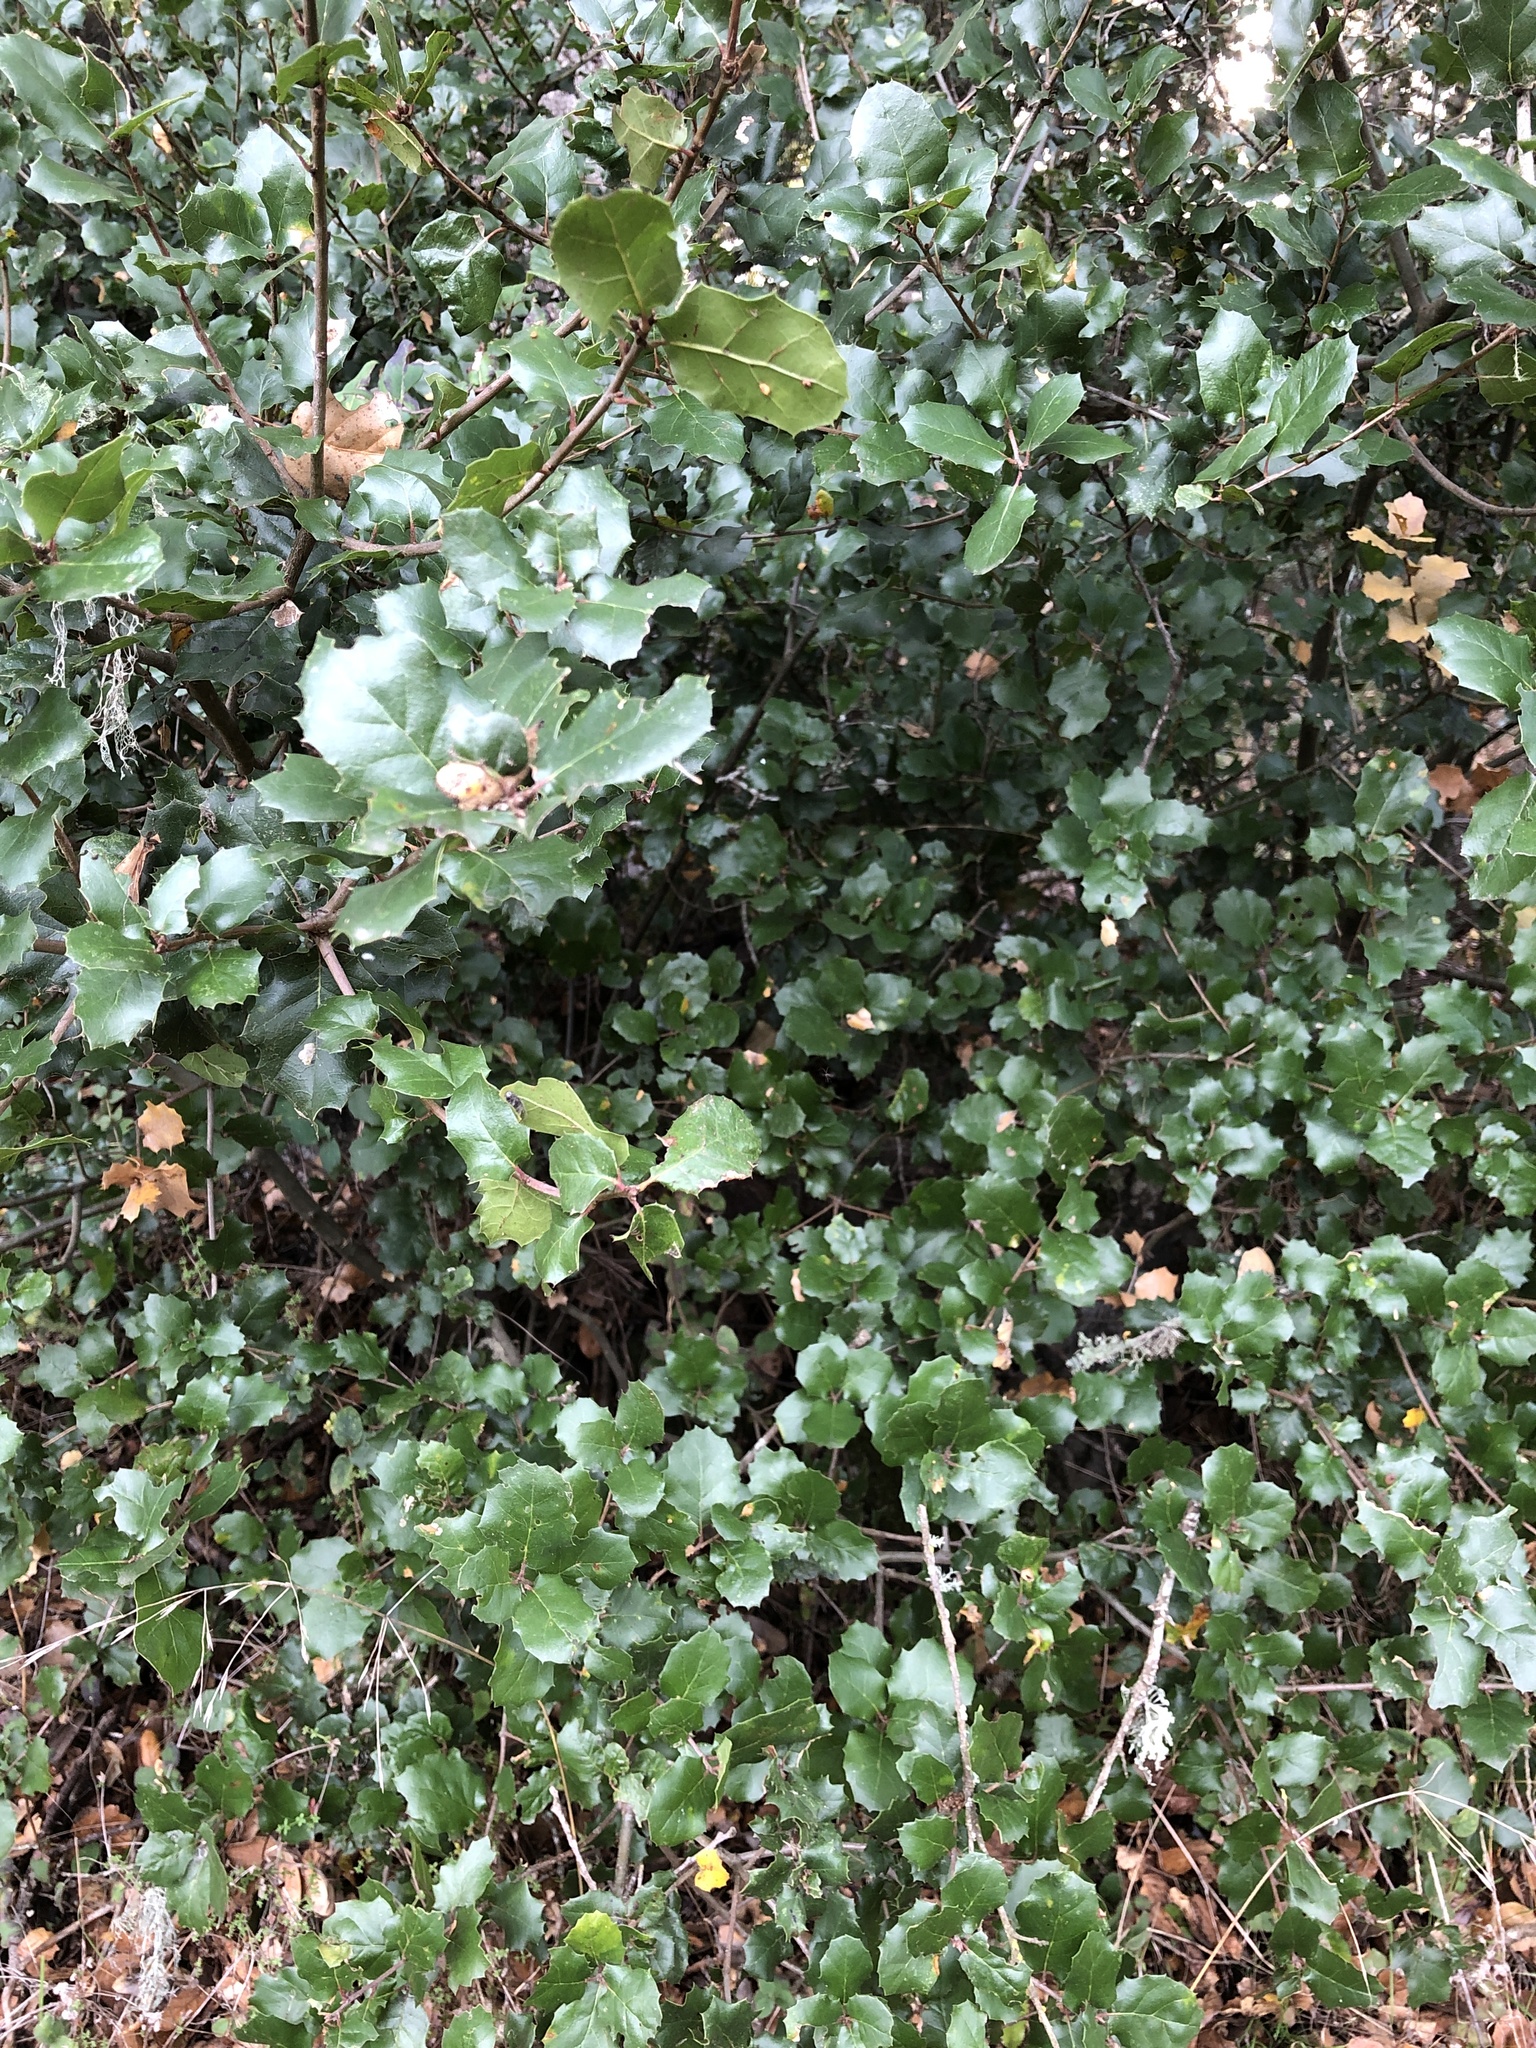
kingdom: Plantae
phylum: Tracheophyta
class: Magnoliopsida
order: Fagales
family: Fagaceae
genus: Quercus
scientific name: Quercus agrifolia
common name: California live oak
